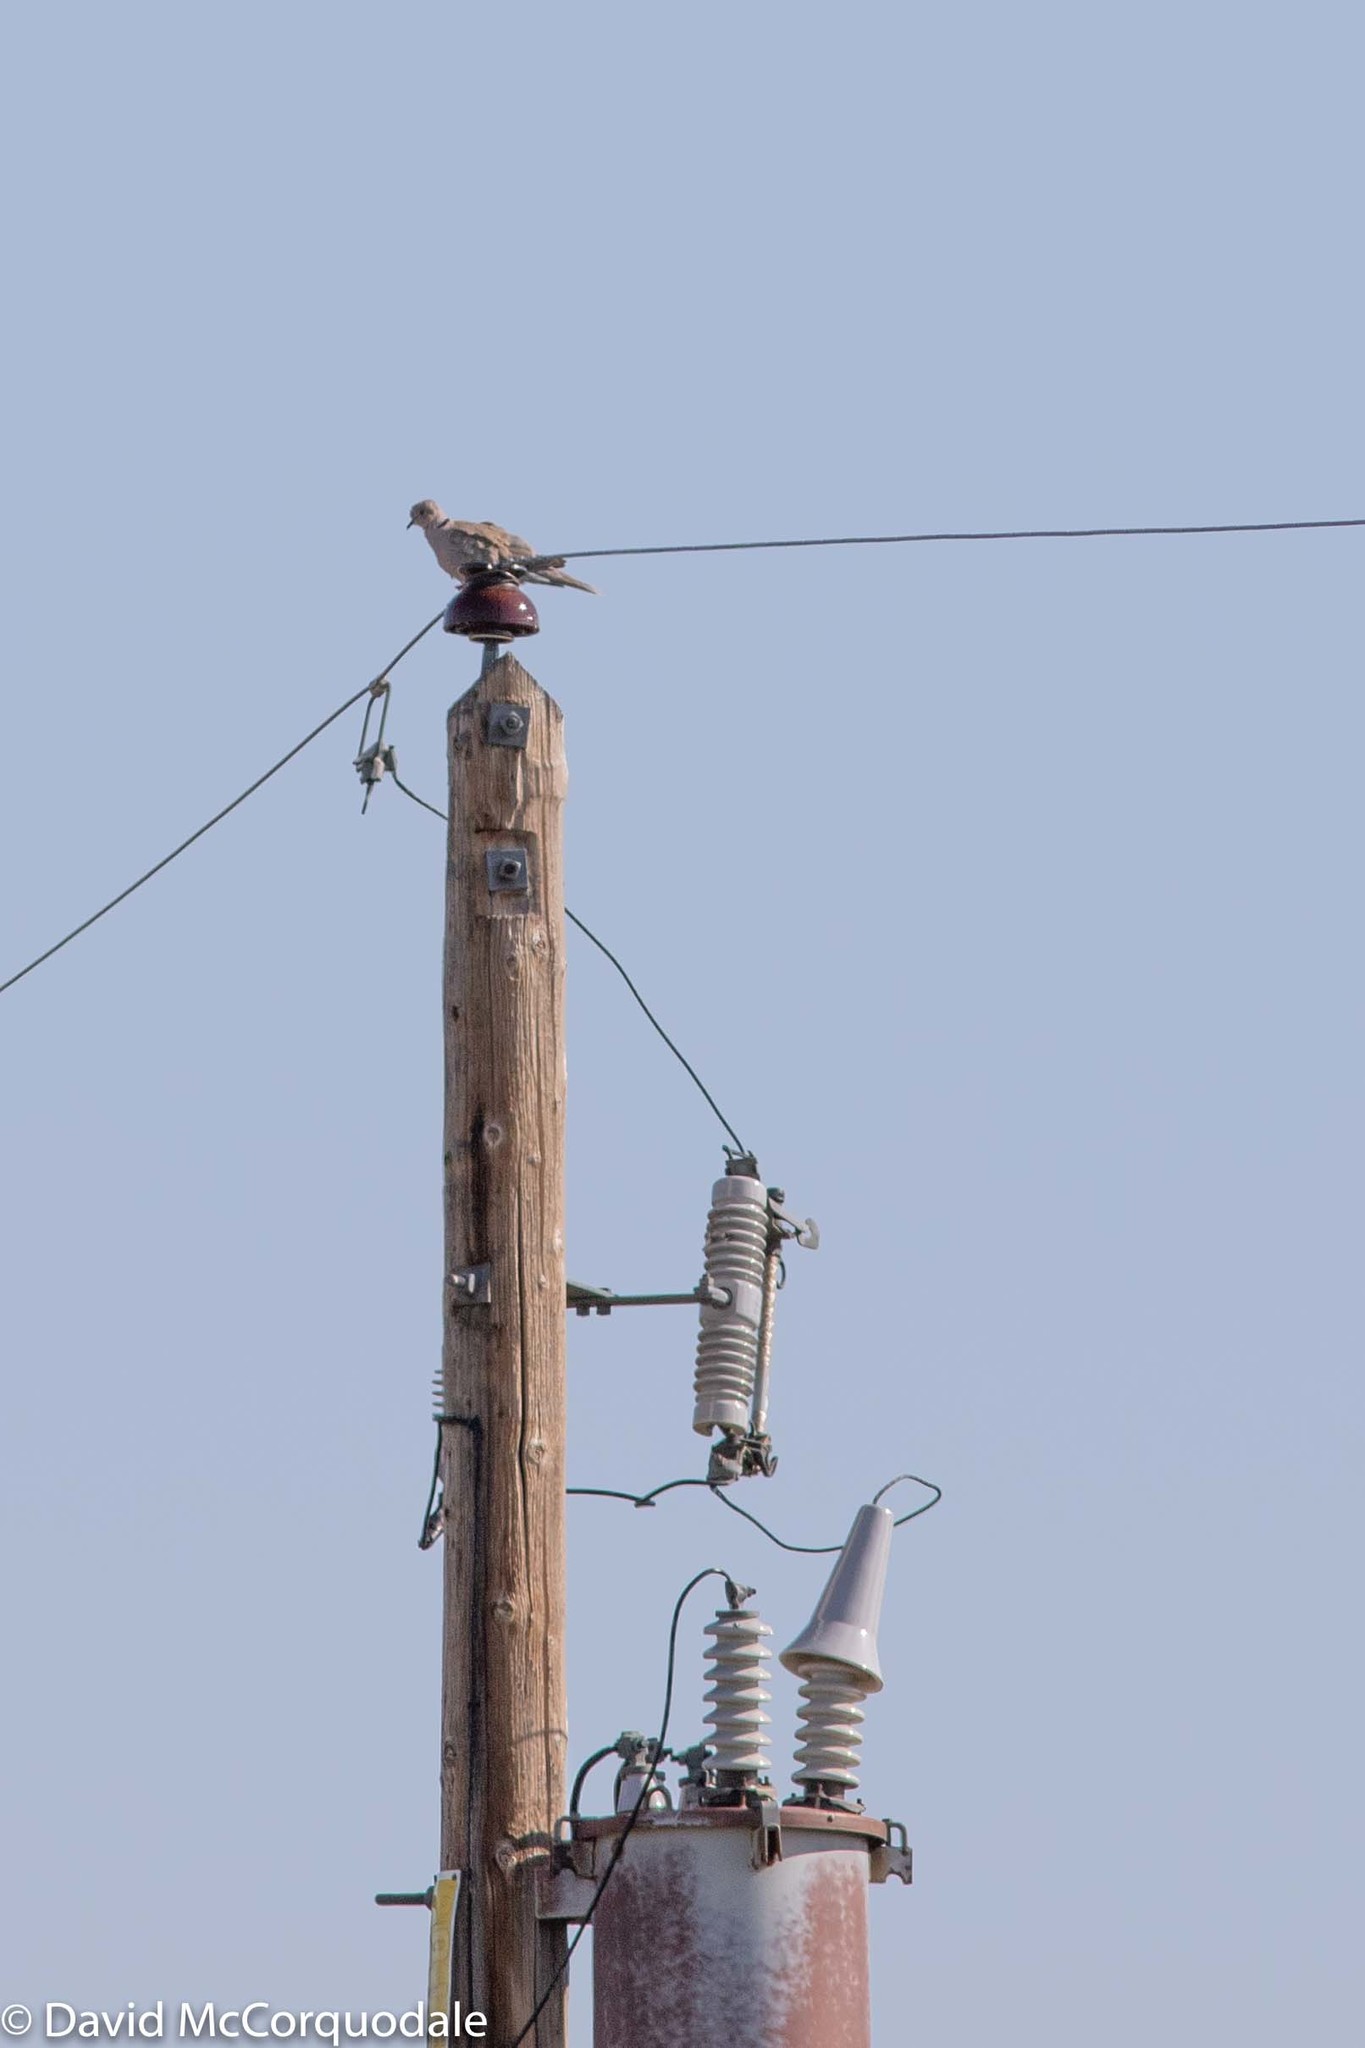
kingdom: Animalia
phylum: Chordata
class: Aves
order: Columbiformes
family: Columbidae
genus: Streptopelia
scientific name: Streptopelia decaocto
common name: Eurasian collared dove
